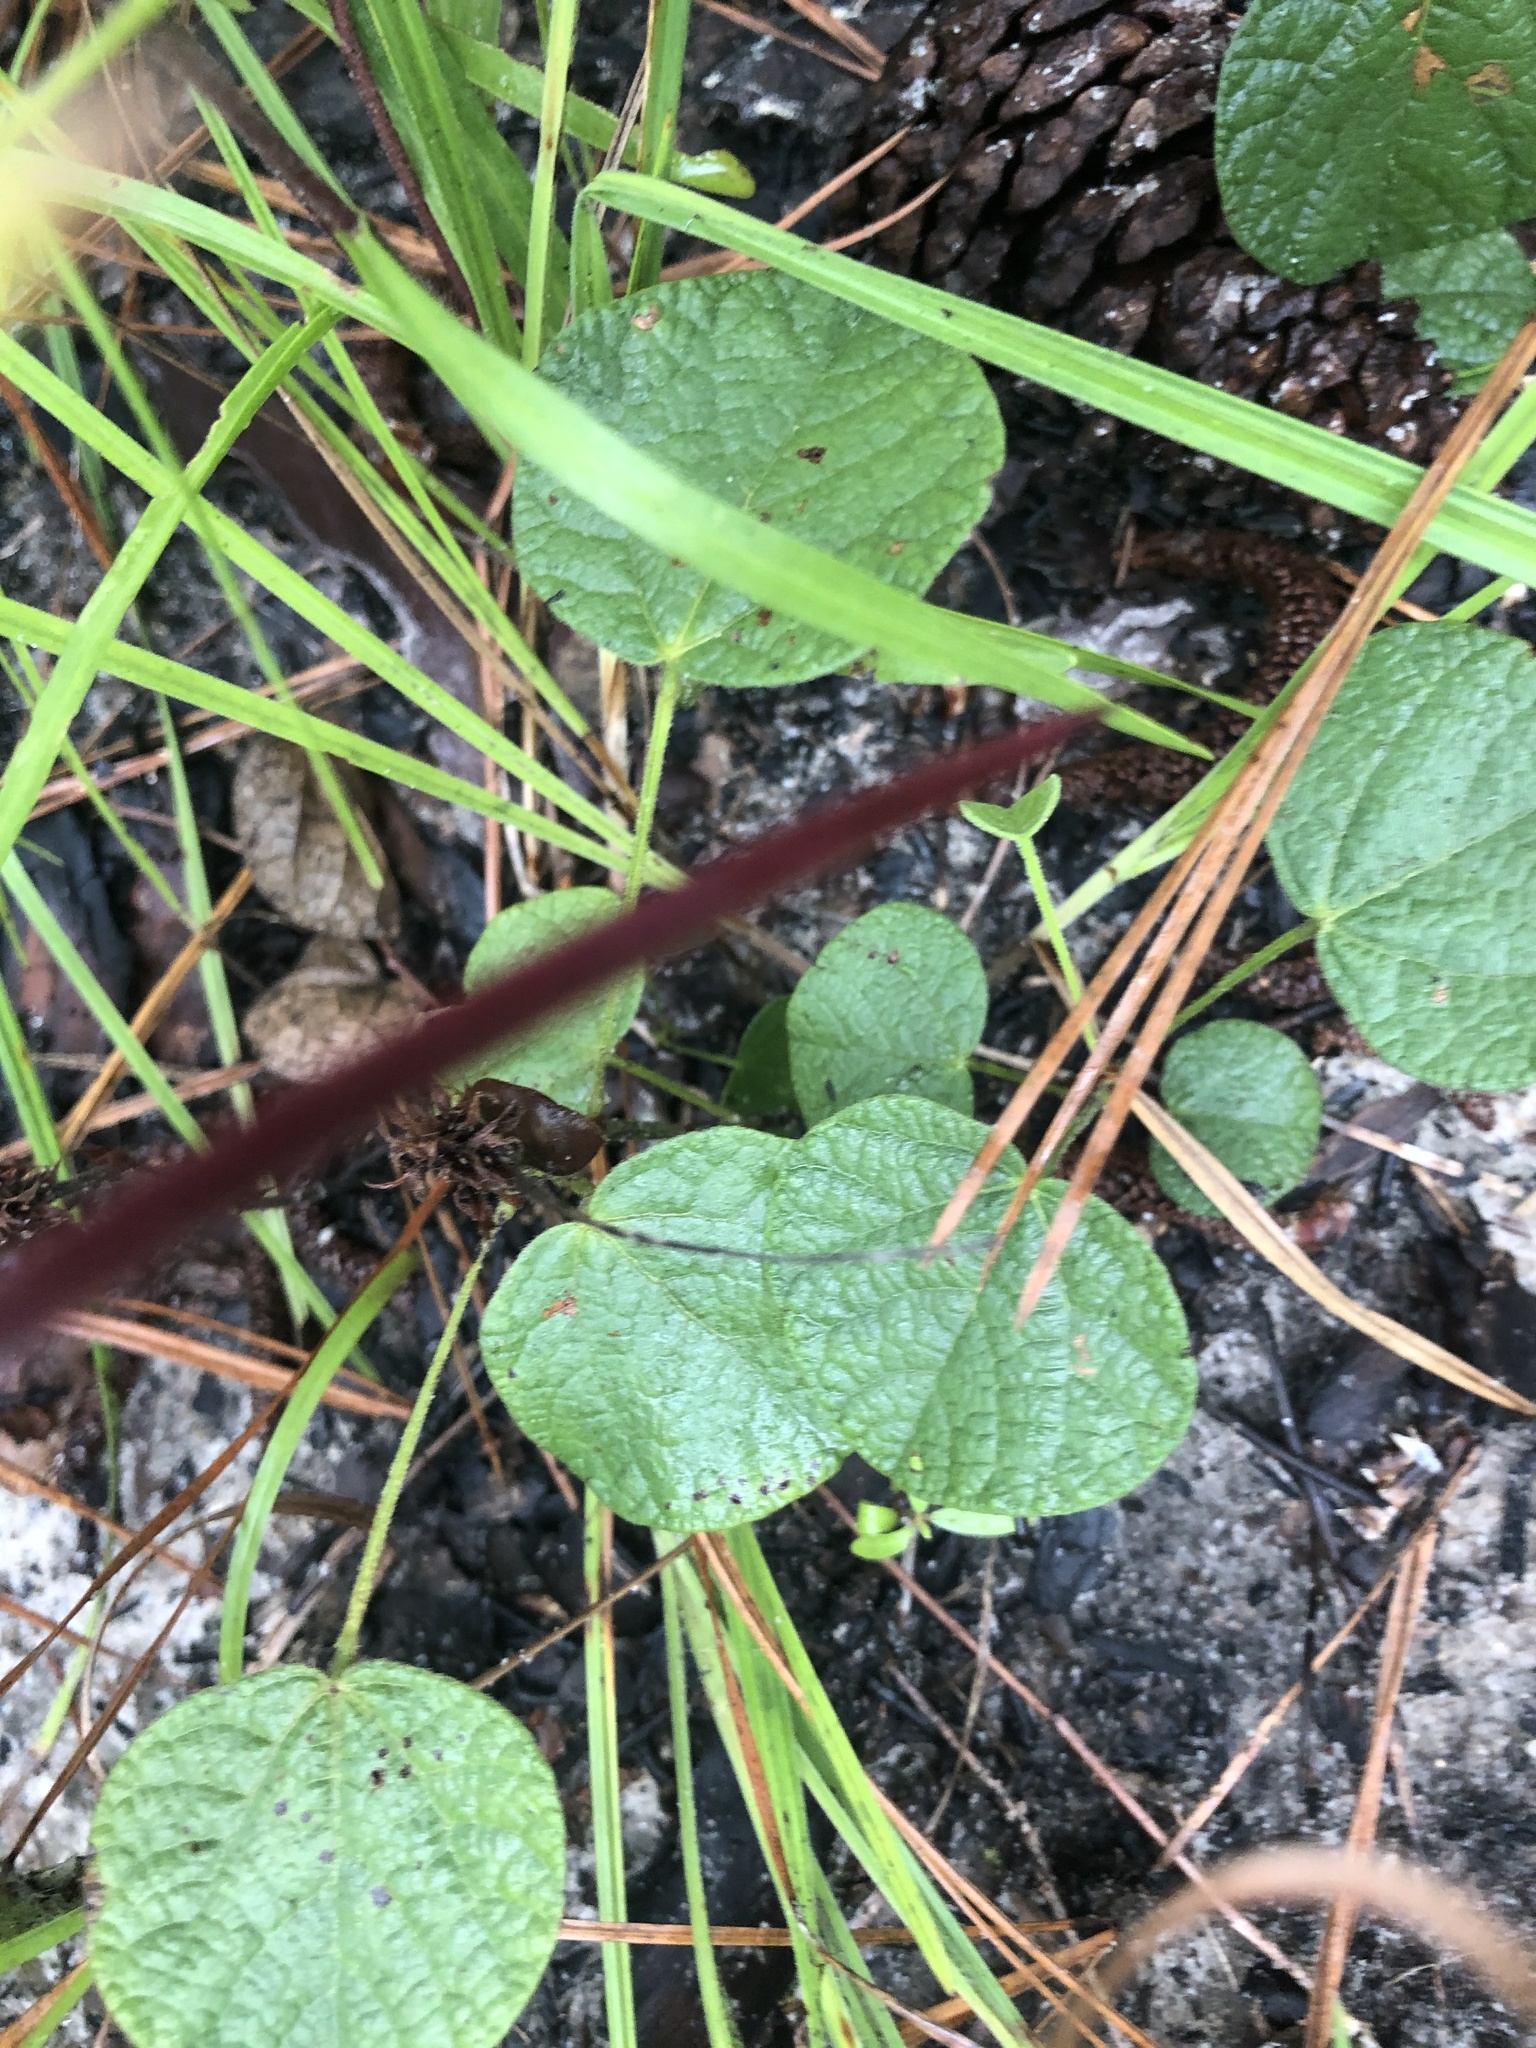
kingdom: Plantae
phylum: Tracheophyta
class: Magnoliopsida
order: Fabales
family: Fabaceae
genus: Rhynchosia
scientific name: Rhynchosia reniformis
